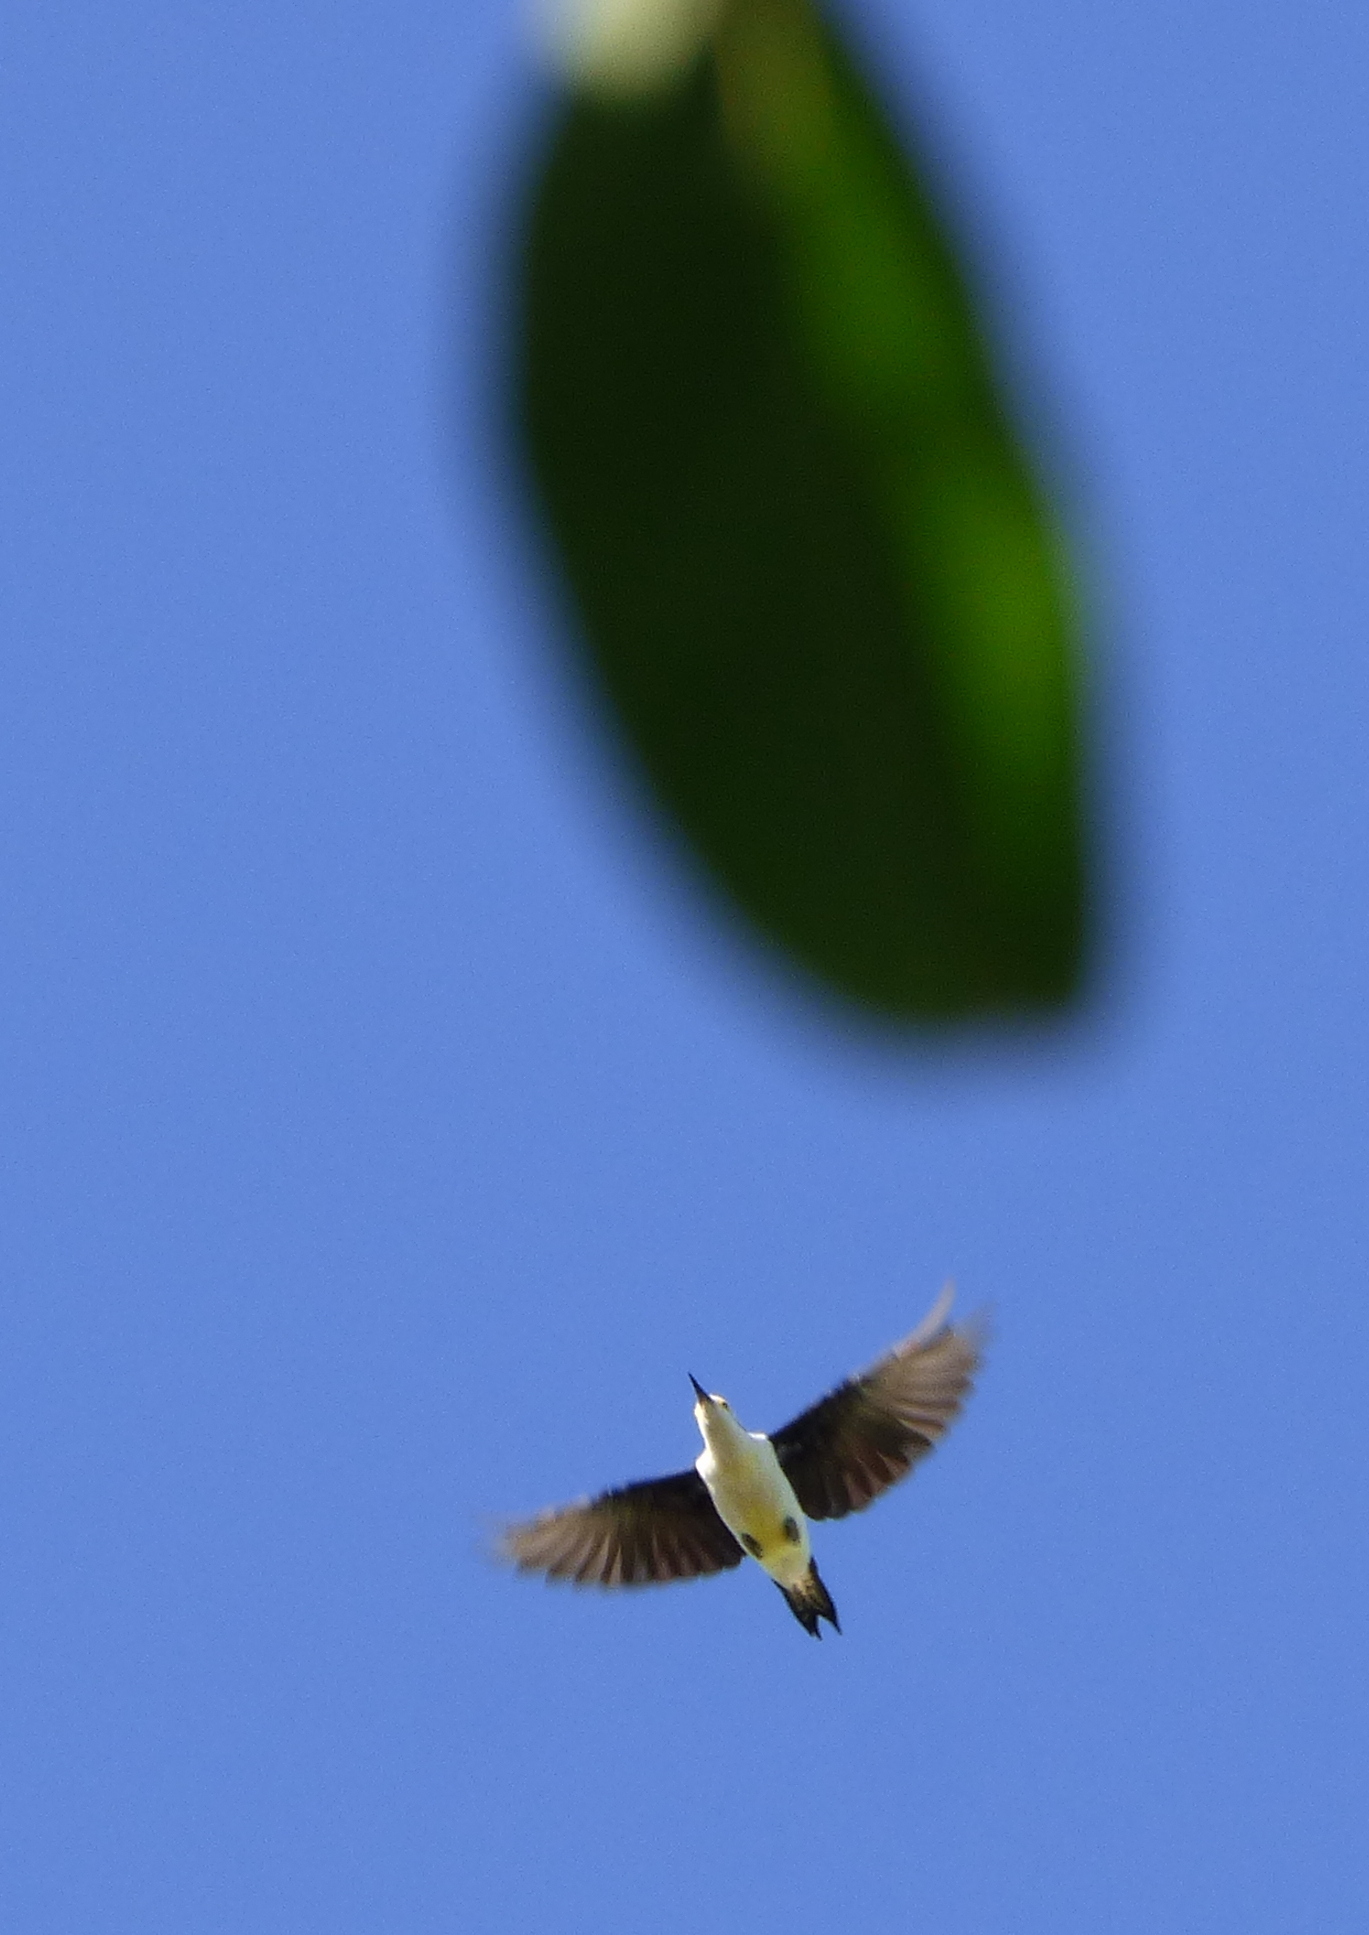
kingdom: Animalia
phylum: Chordata
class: Aves
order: Piciformes
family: Picidae
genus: Melanerpes
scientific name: Melanerpes candidus
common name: White woodpecker
